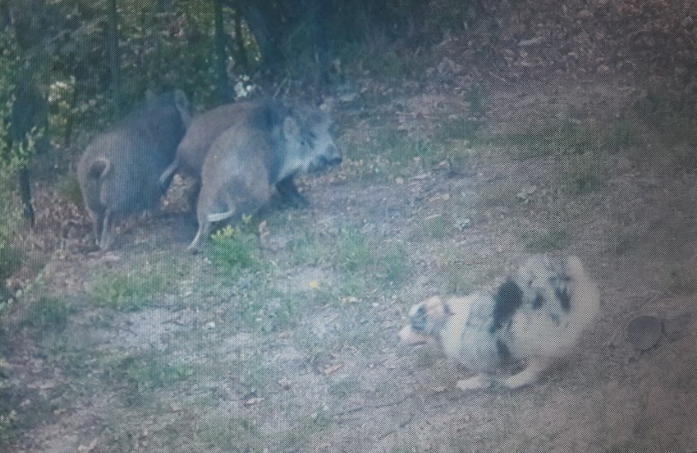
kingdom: Animalia
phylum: Chordata
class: Mammalia
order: Artiodactyla
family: Suidae
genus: Sus
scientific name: Sus scrofa
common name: Wild boar
